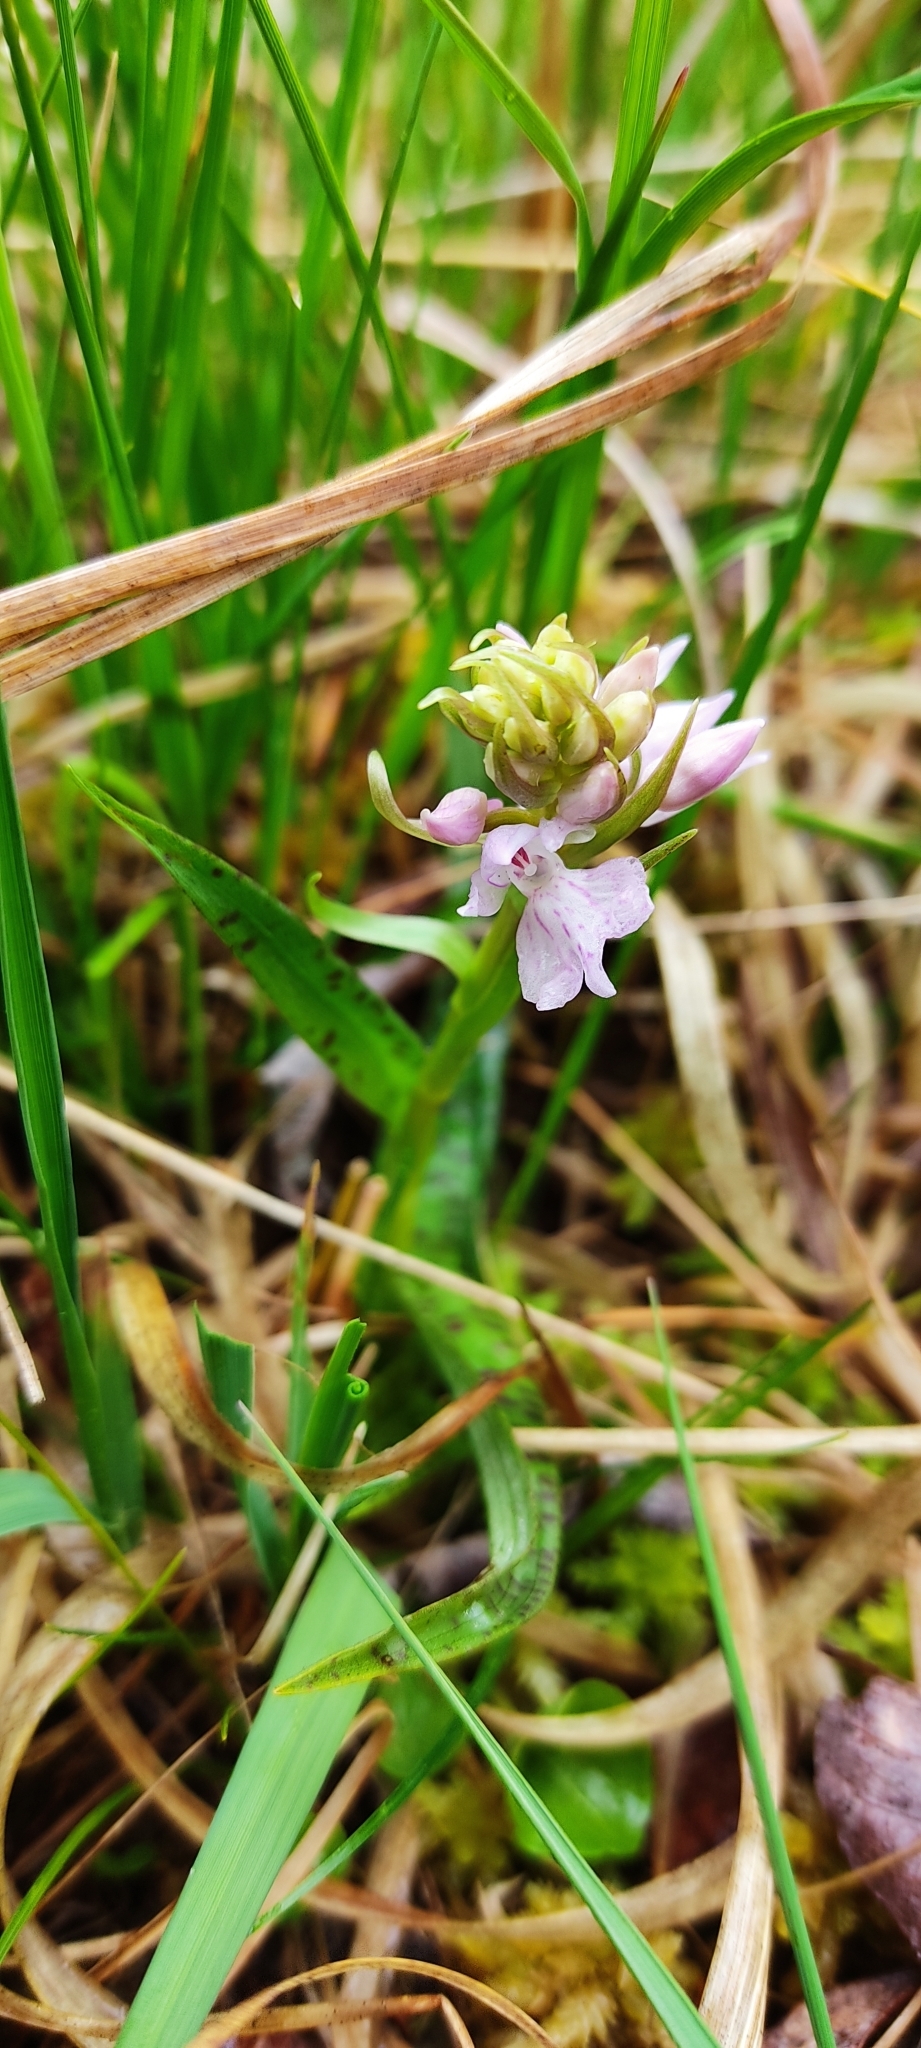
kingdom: Plantae
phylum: Tracheophyta
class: Liliopsida
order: Asparagales
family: Orchidaceae
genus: Dactylorhiza
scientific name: Dactylorhiza maculata
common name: Heath spotted-orchid
